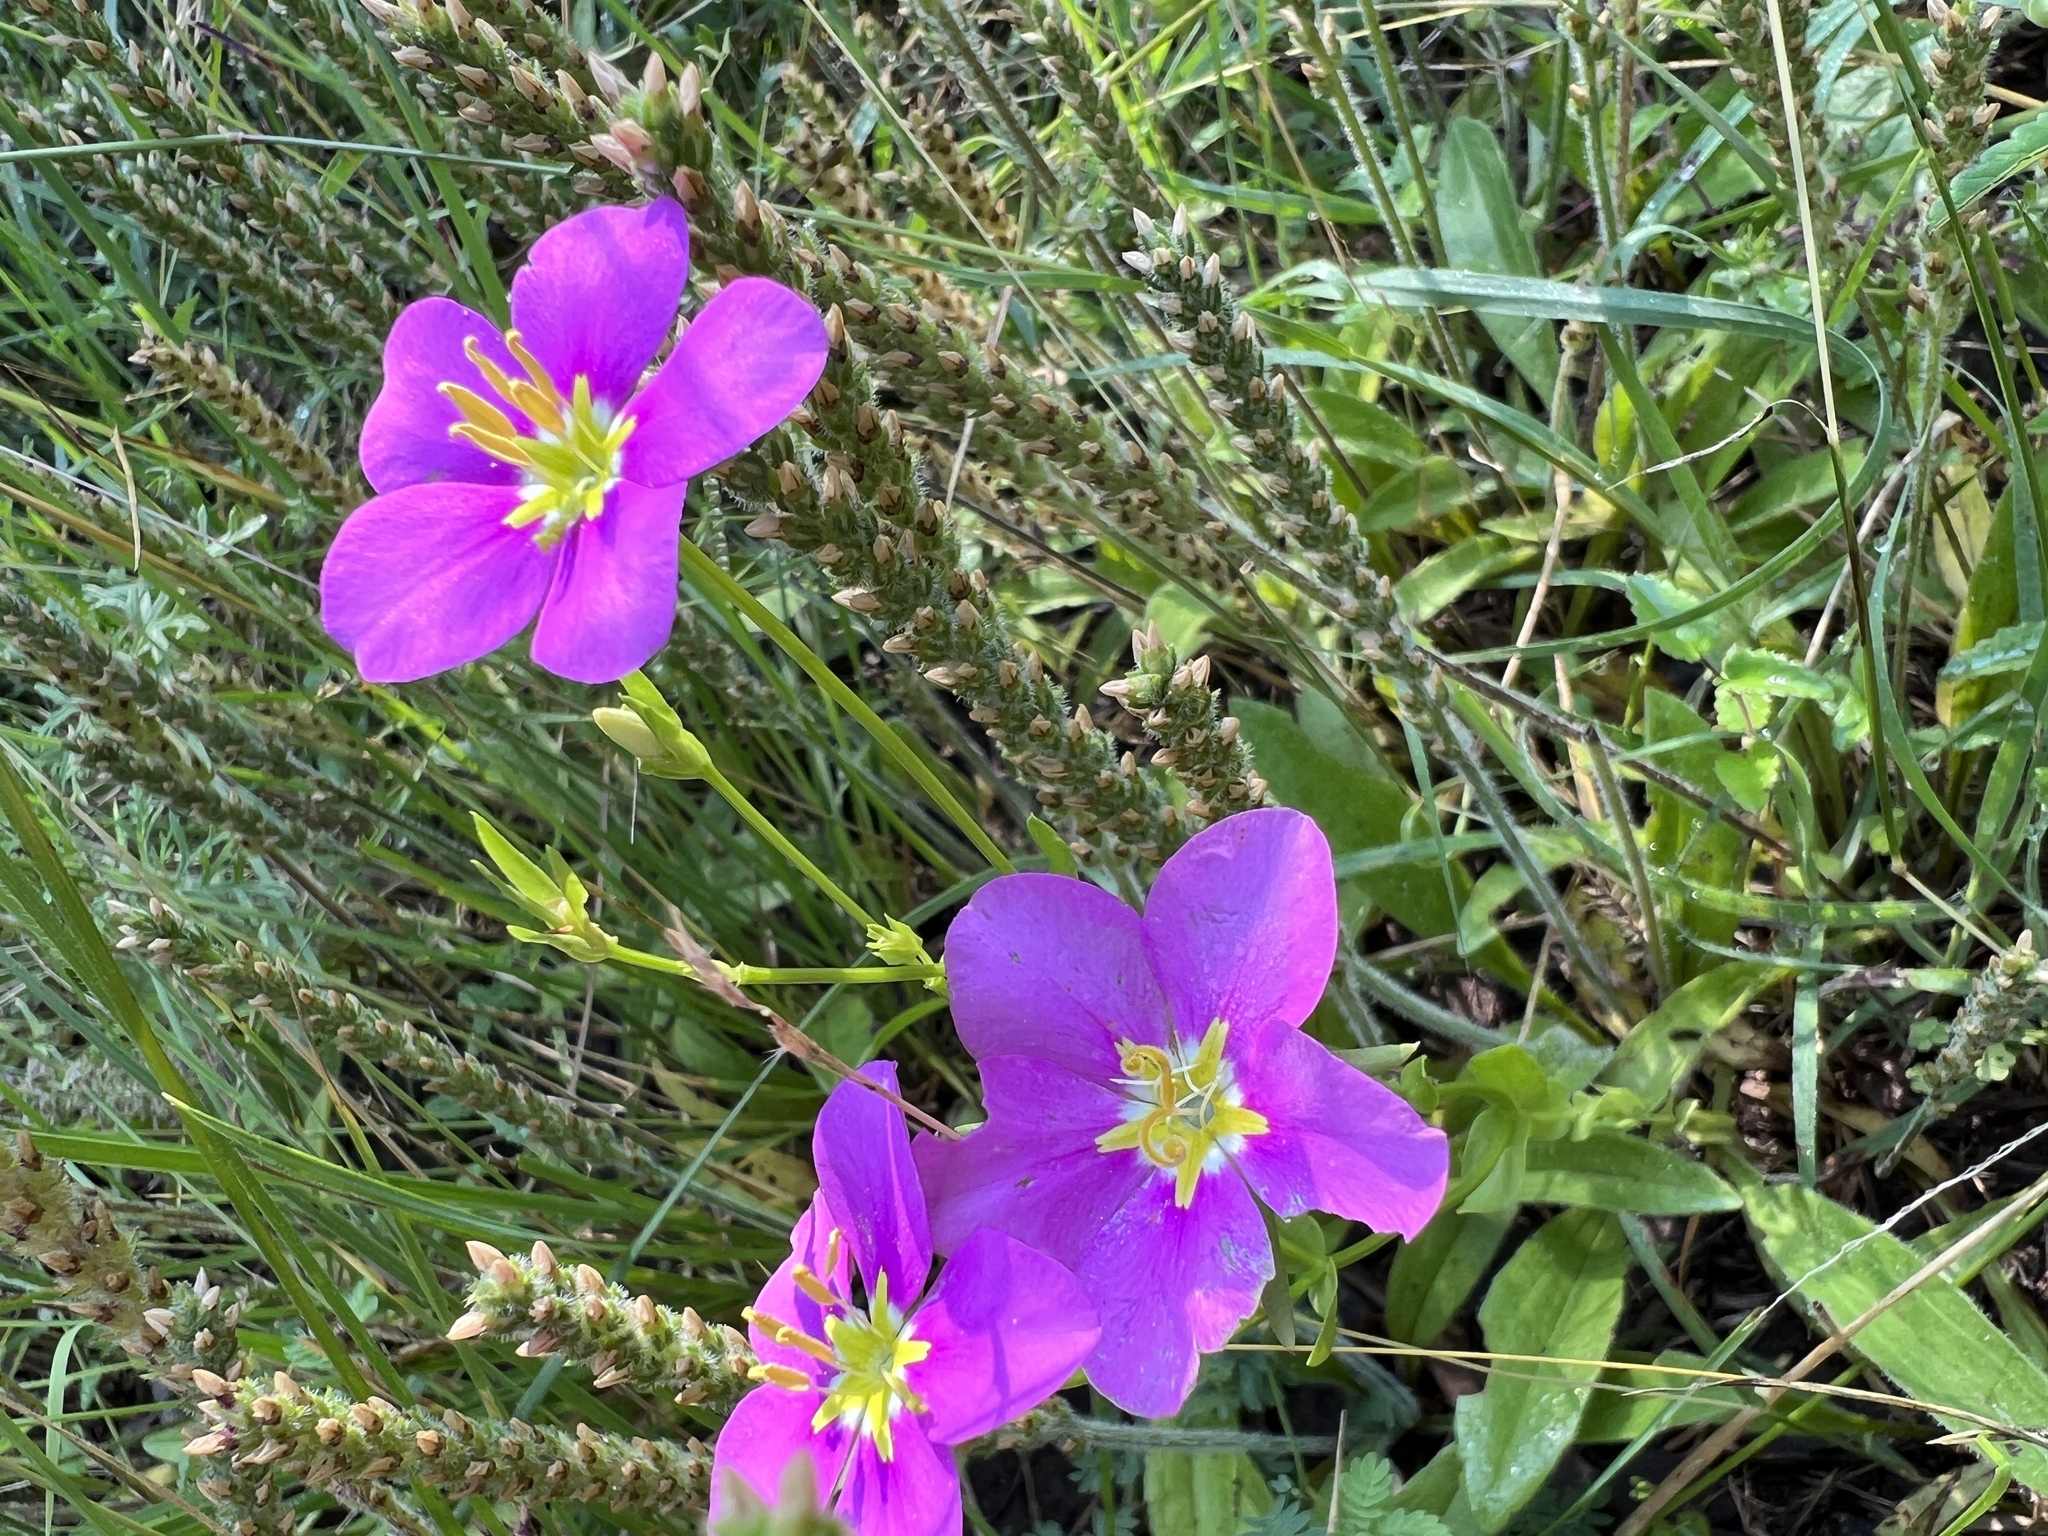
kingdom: Plantae
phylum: Tracheophyta
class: Magnoliopsida
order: Gentianales
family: Gentianaceae
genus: Sabatia
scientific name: Sabatia campestris
